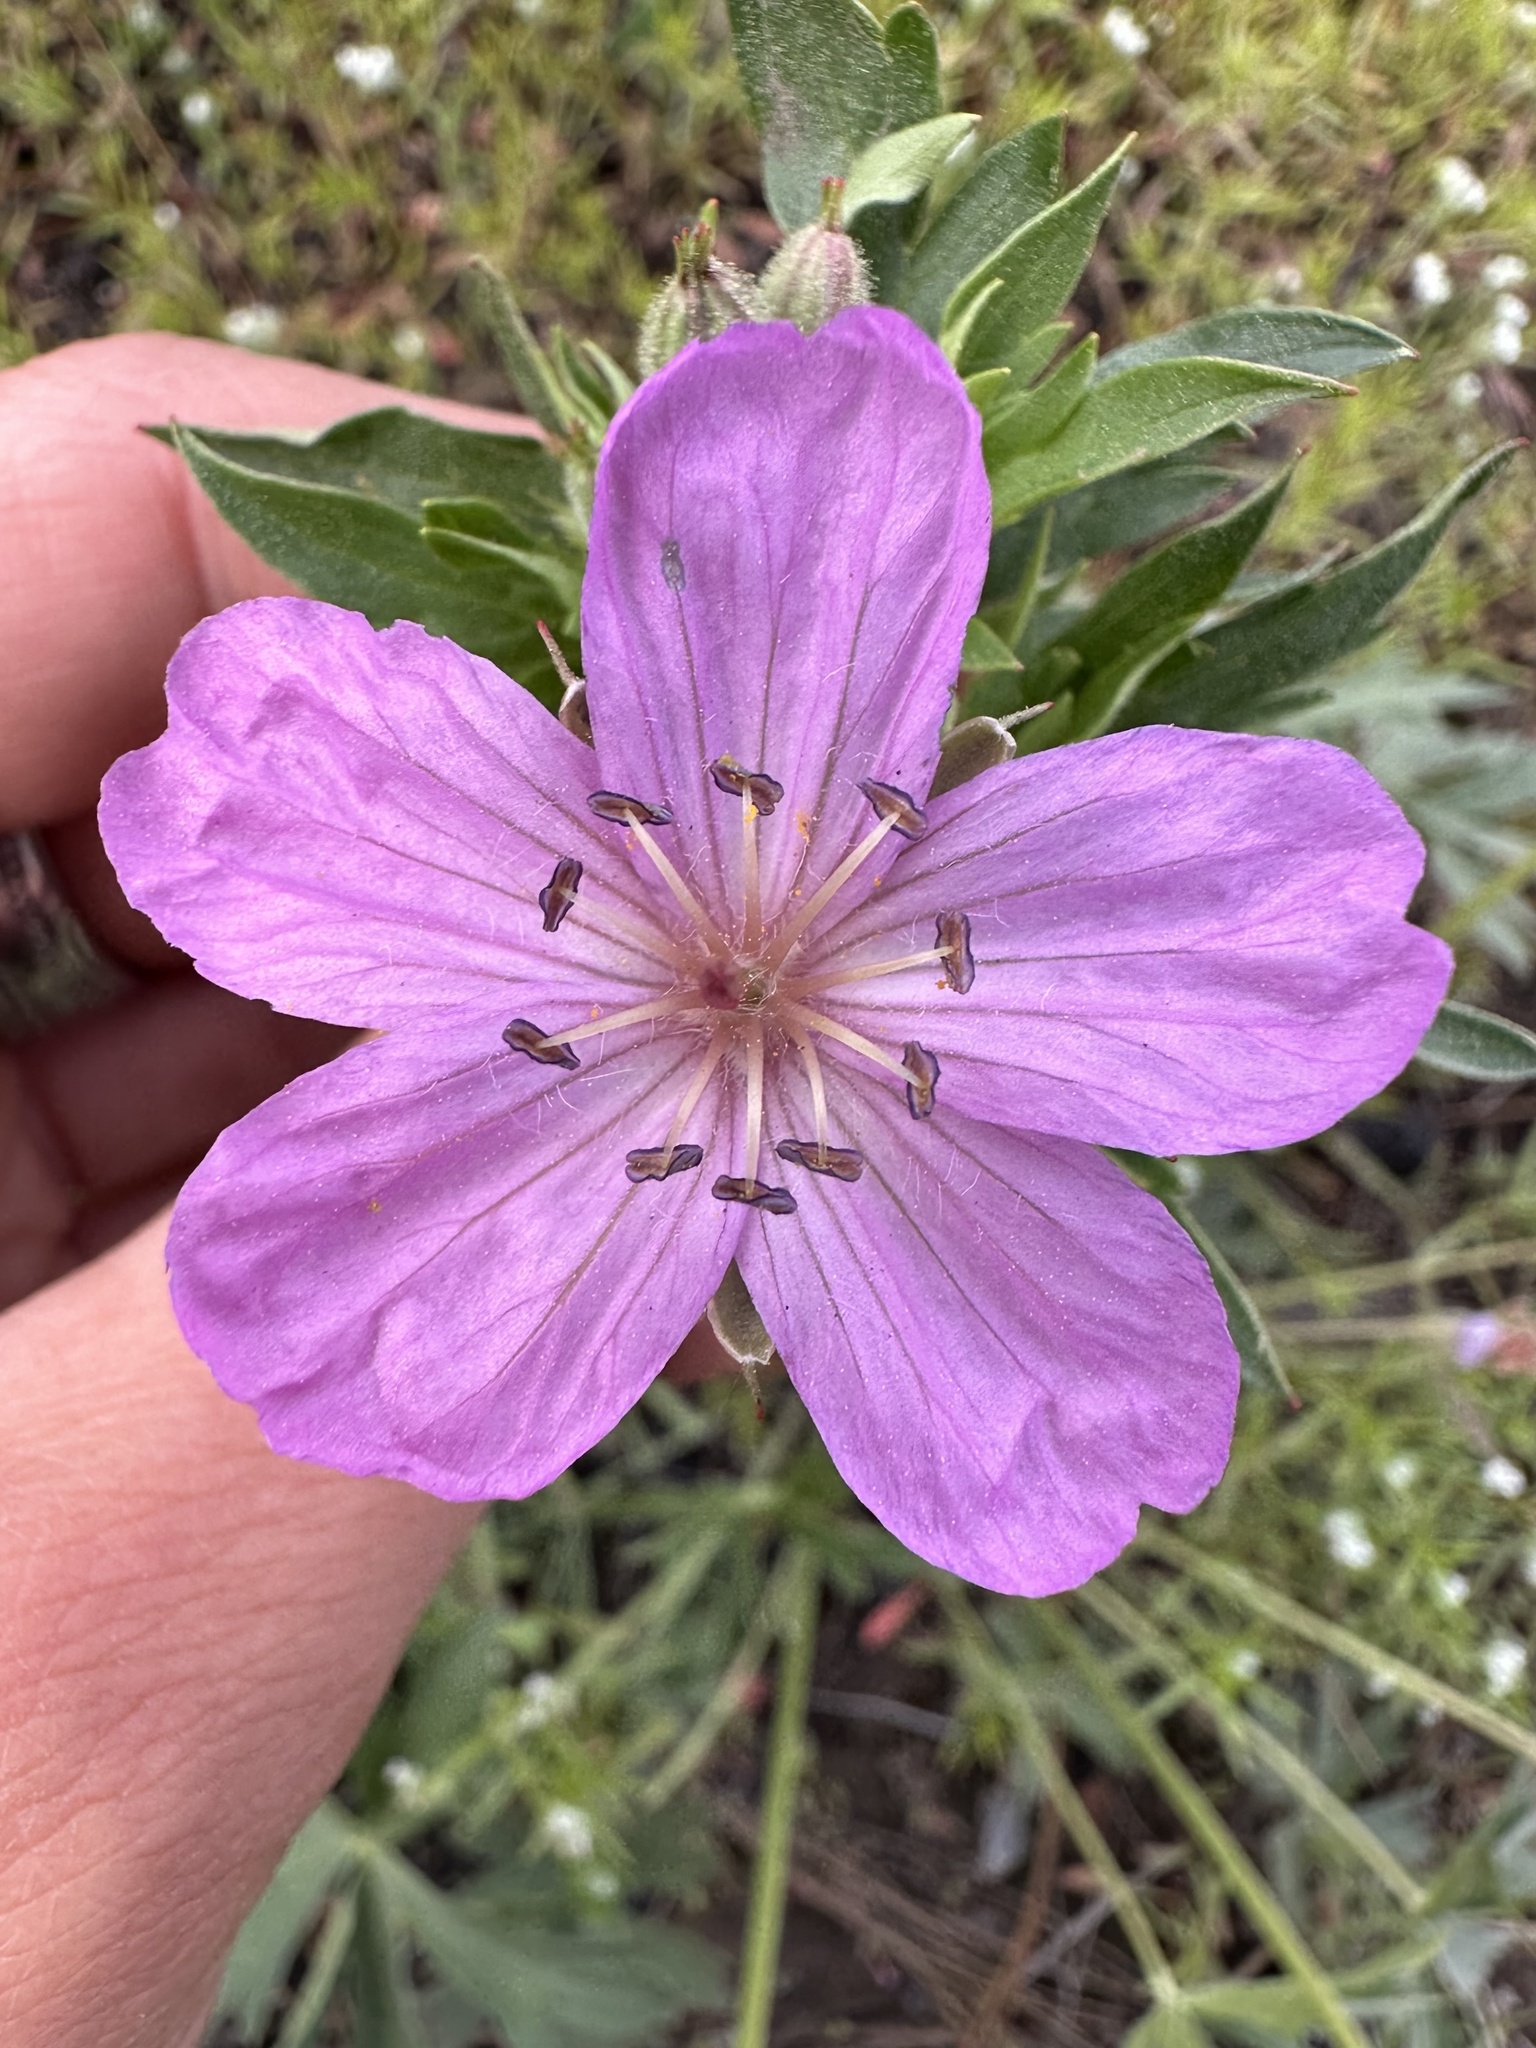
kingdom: Plantae
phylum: Tracheophyta
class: Magnoliopsida
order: Geraniales
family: Geraniaceae
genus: Geranium
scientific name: Geranium viscosissimum
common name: Purple geranium
